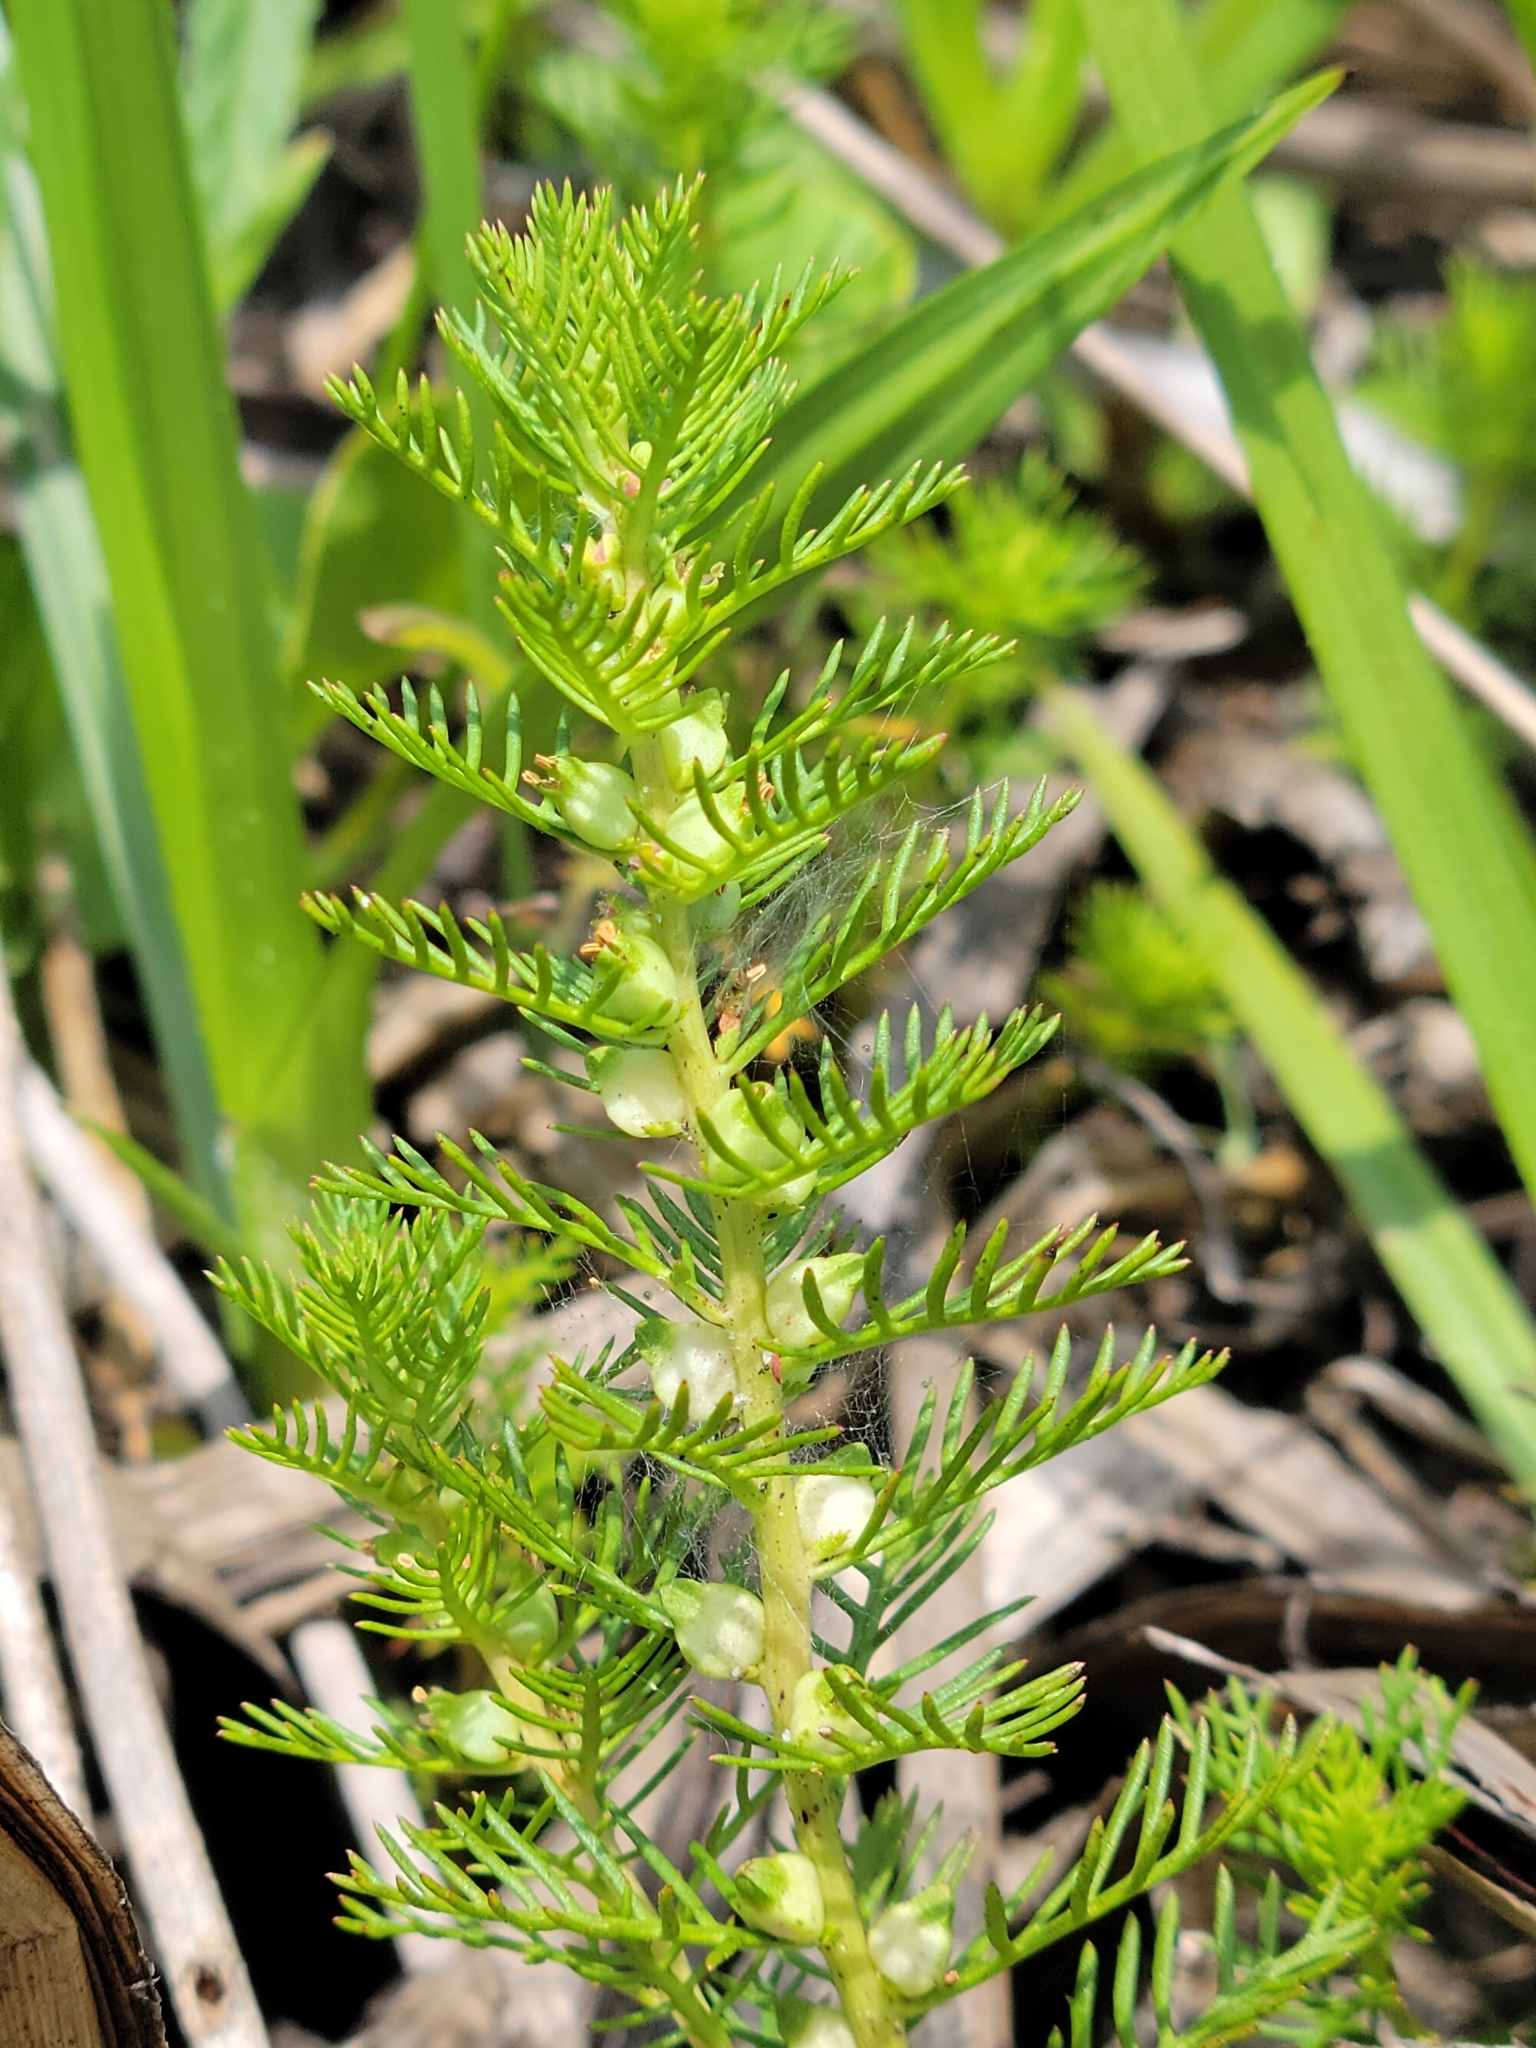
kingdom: Plantae
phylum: Tracheophyta
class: Magnoliopsida
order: Saxifragales
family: Haloragaceae
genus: Proserpinaca
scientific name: Proserpinaca pectinata
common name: Comb-leaved mermaidweed
